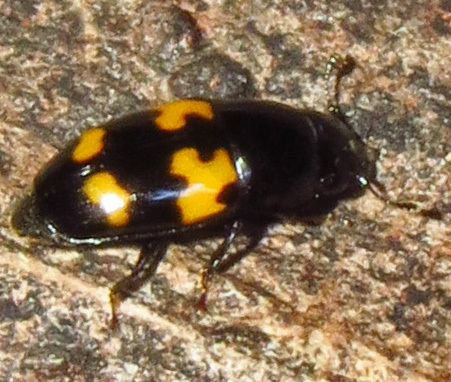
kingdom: Animalia
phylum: Arthropoda
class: Insecta
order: Coleoptera
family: Nitidulidae
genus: Glischrochilus
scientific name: Glischrochilus fasciatus
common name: Picnic beetle
